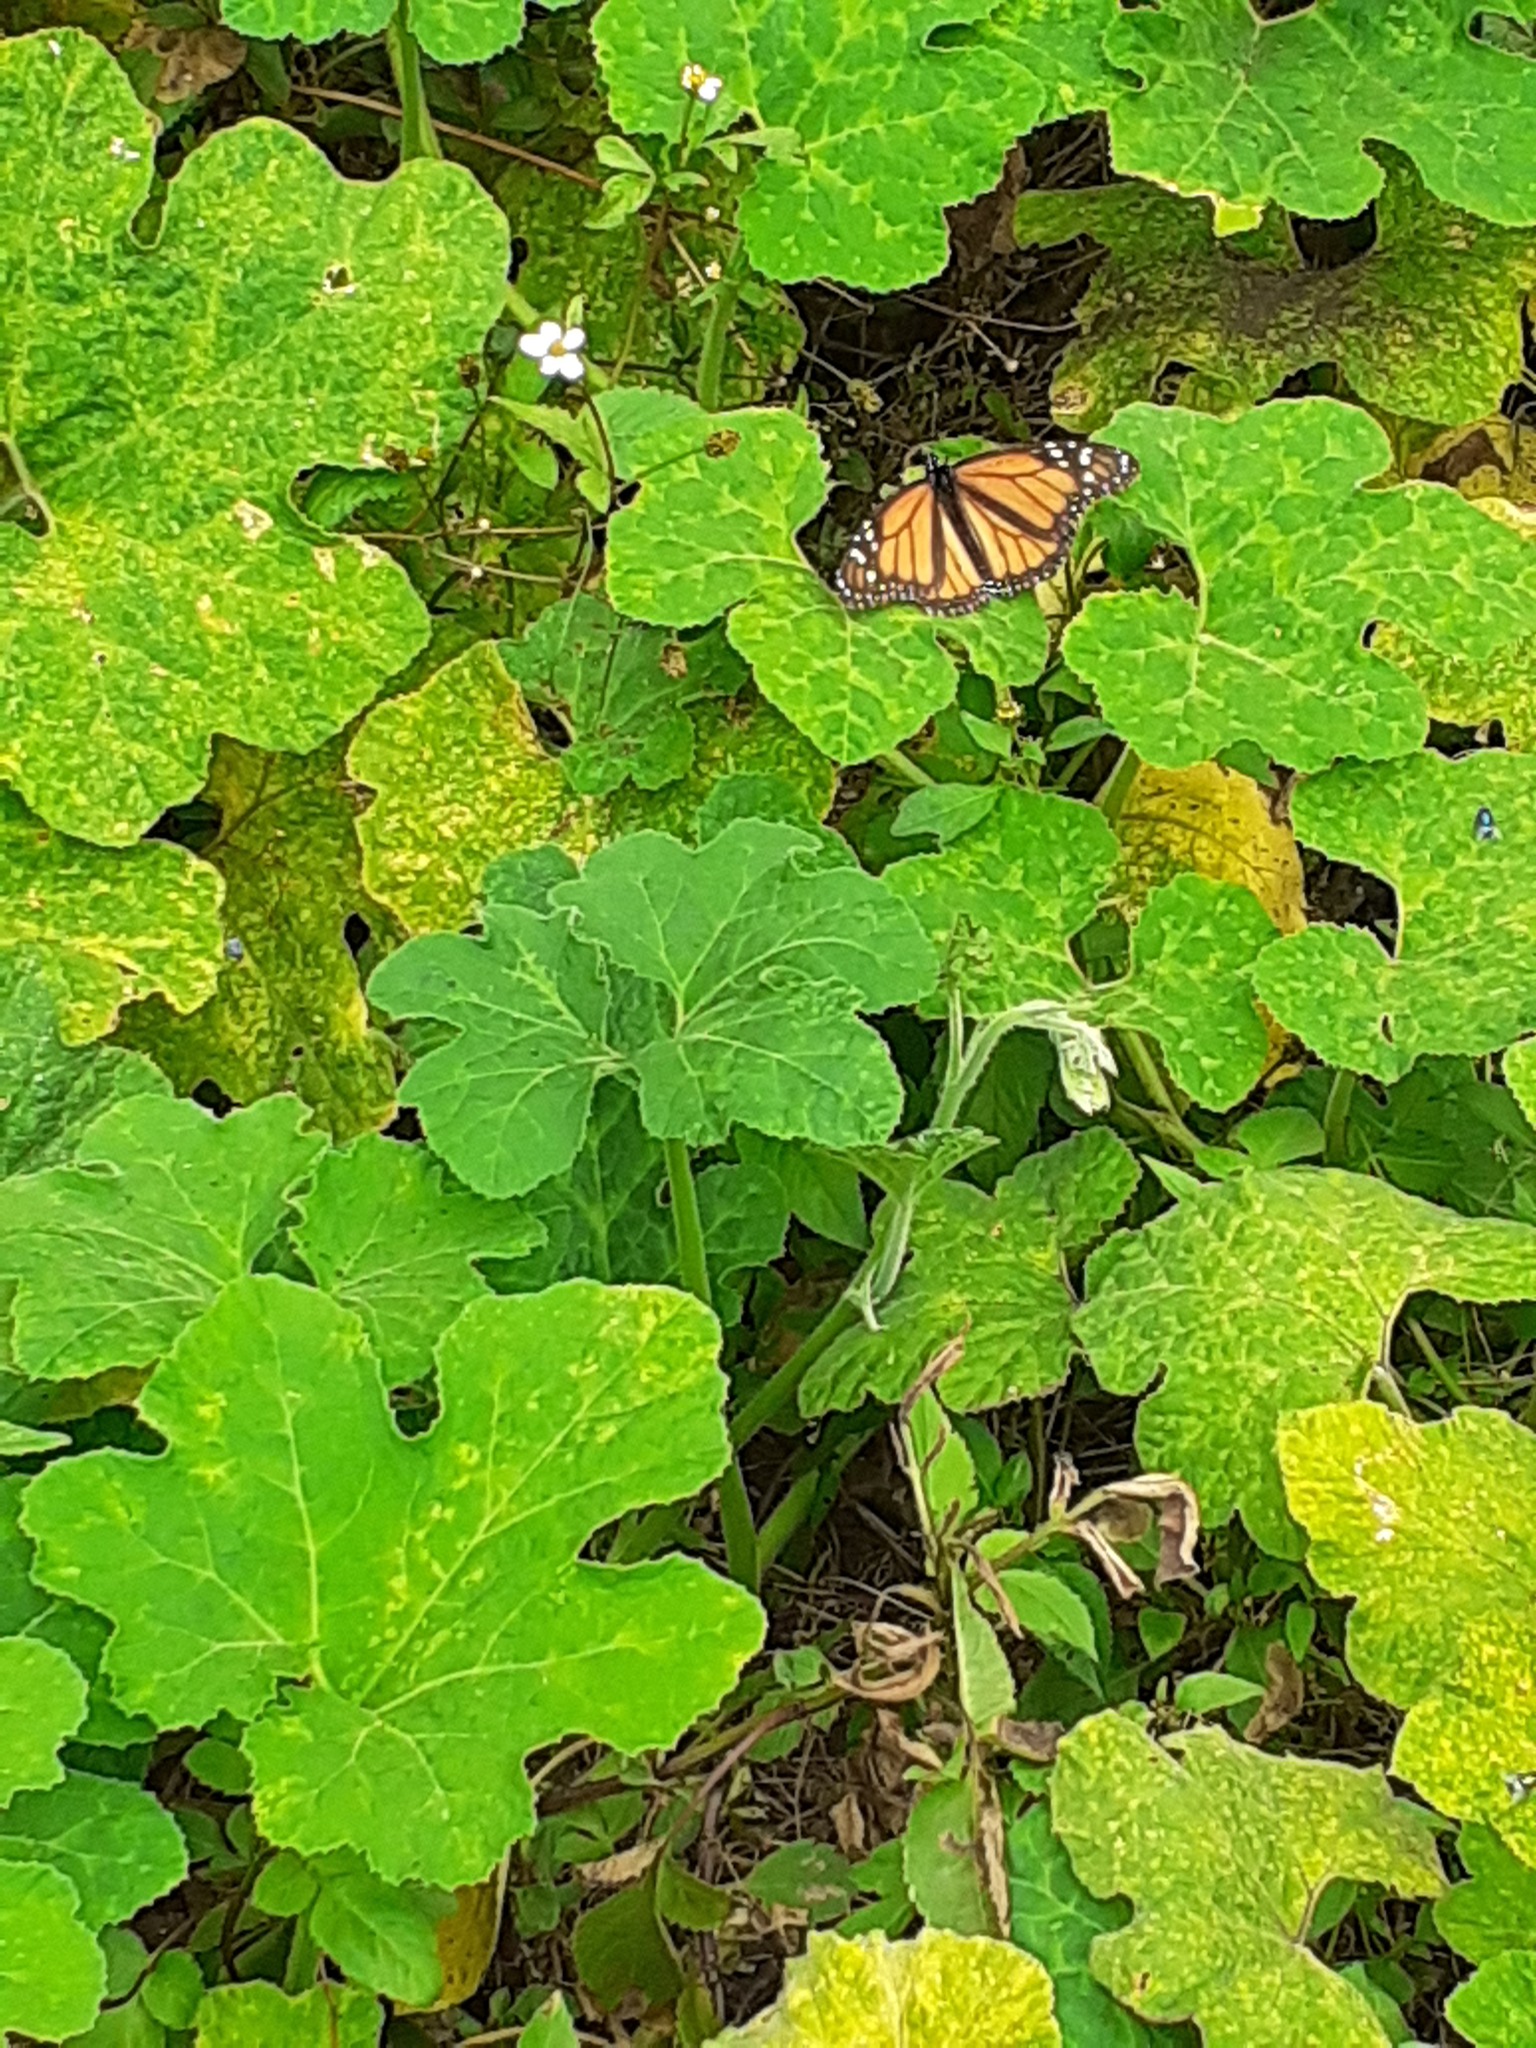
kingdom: Animalia
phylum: Arthropoda
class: Insecta
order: Lepidoptera
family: Nymphalidae
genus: Danaus
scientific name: Danaus plexippus
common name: Monarch
